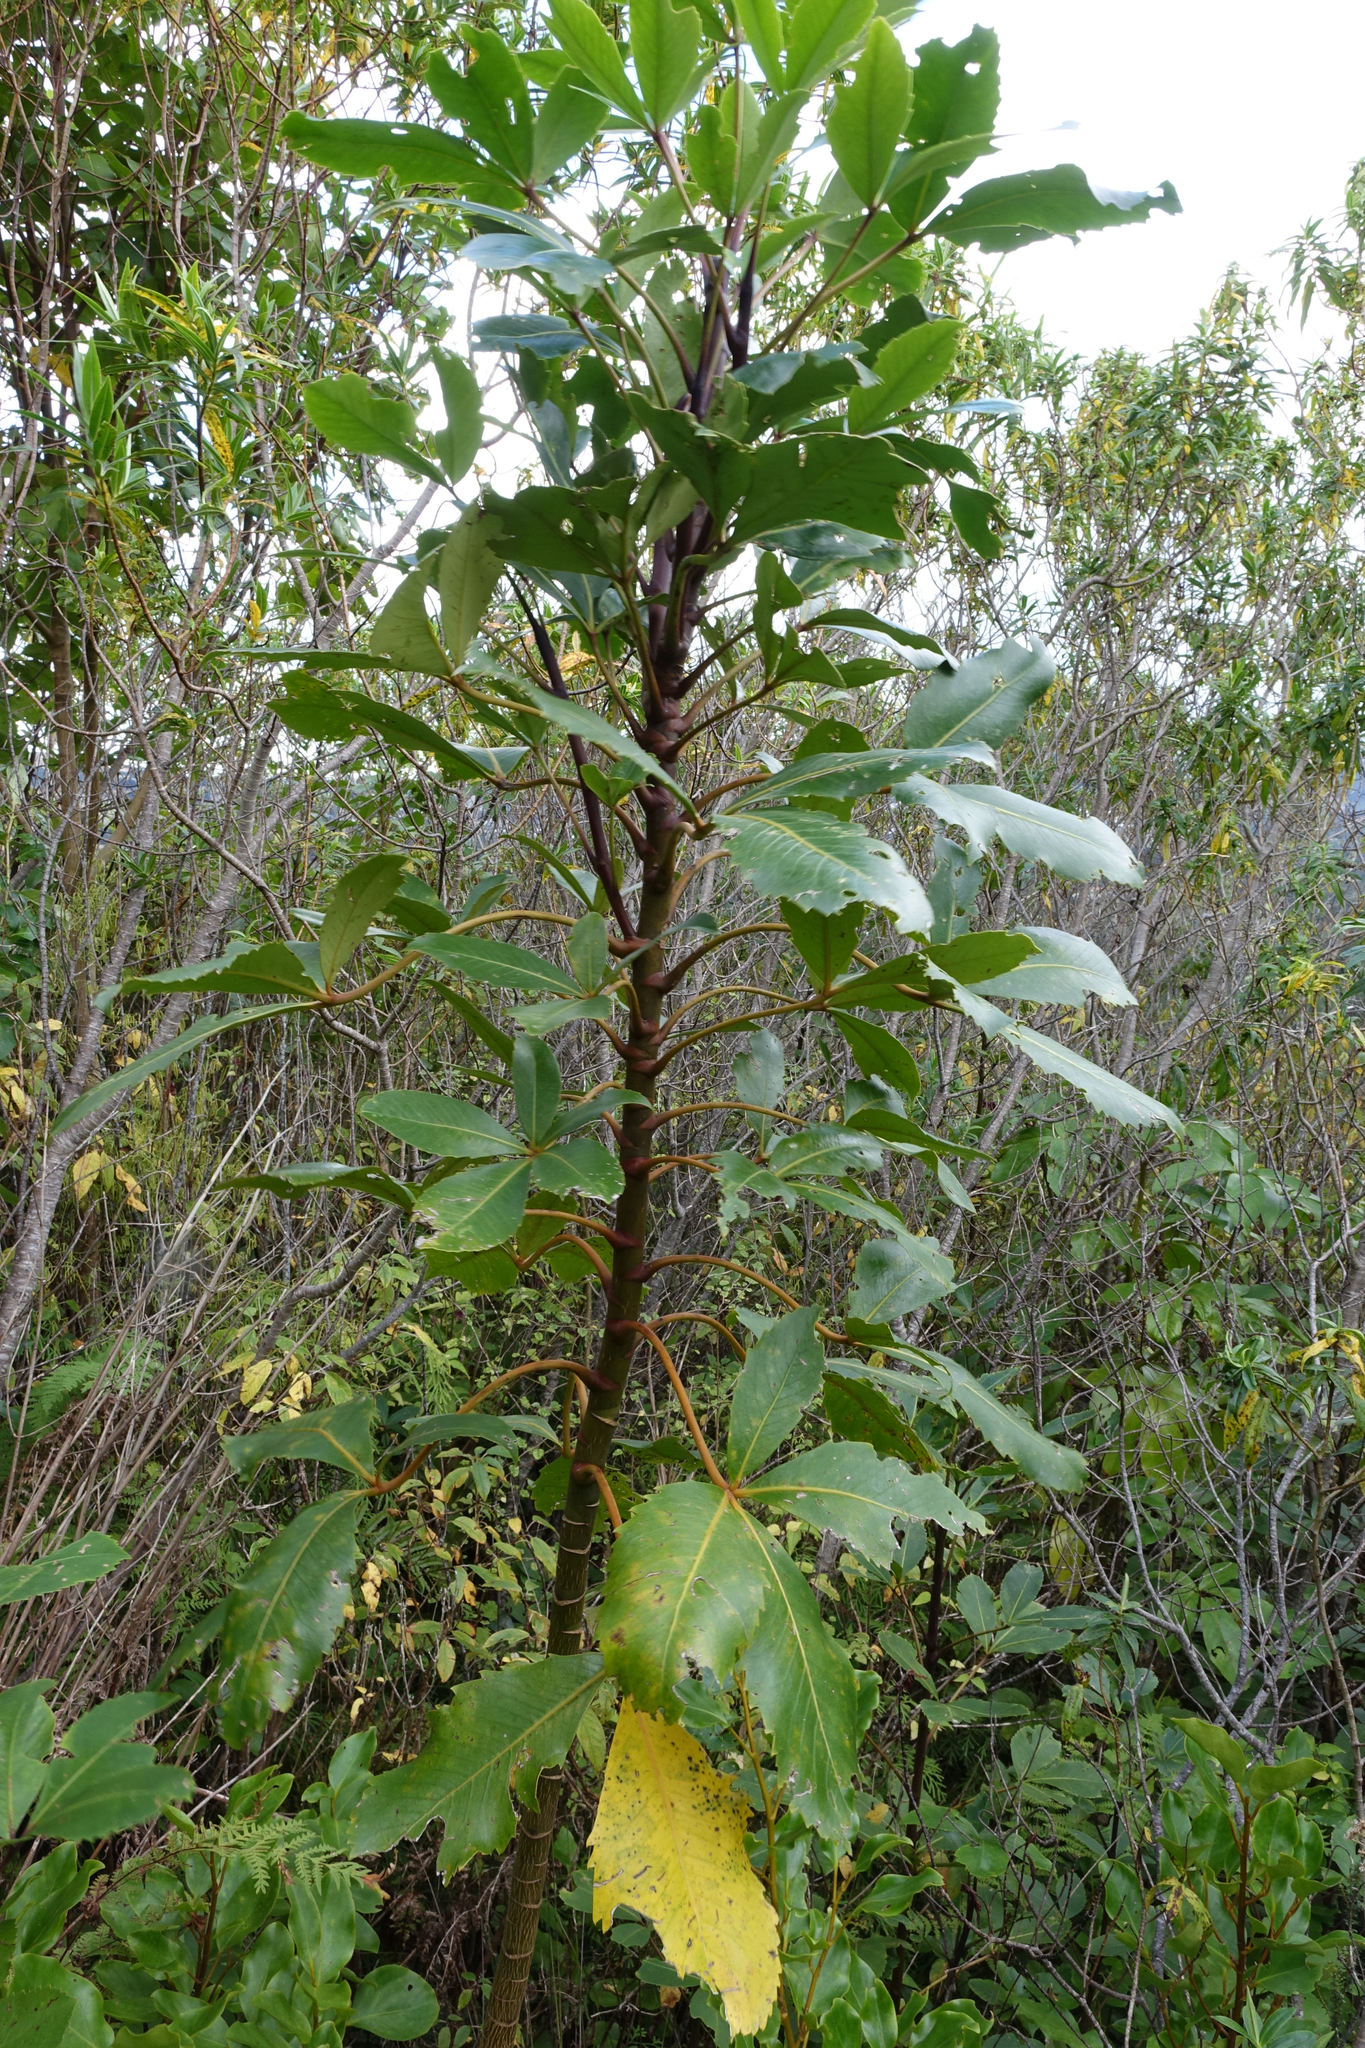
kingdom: Plantae
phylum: Tracheophyta
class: Magnoliopsida
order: Apiales
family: Araliaceae
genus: Neopanax
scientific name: Neopanax colensoi
